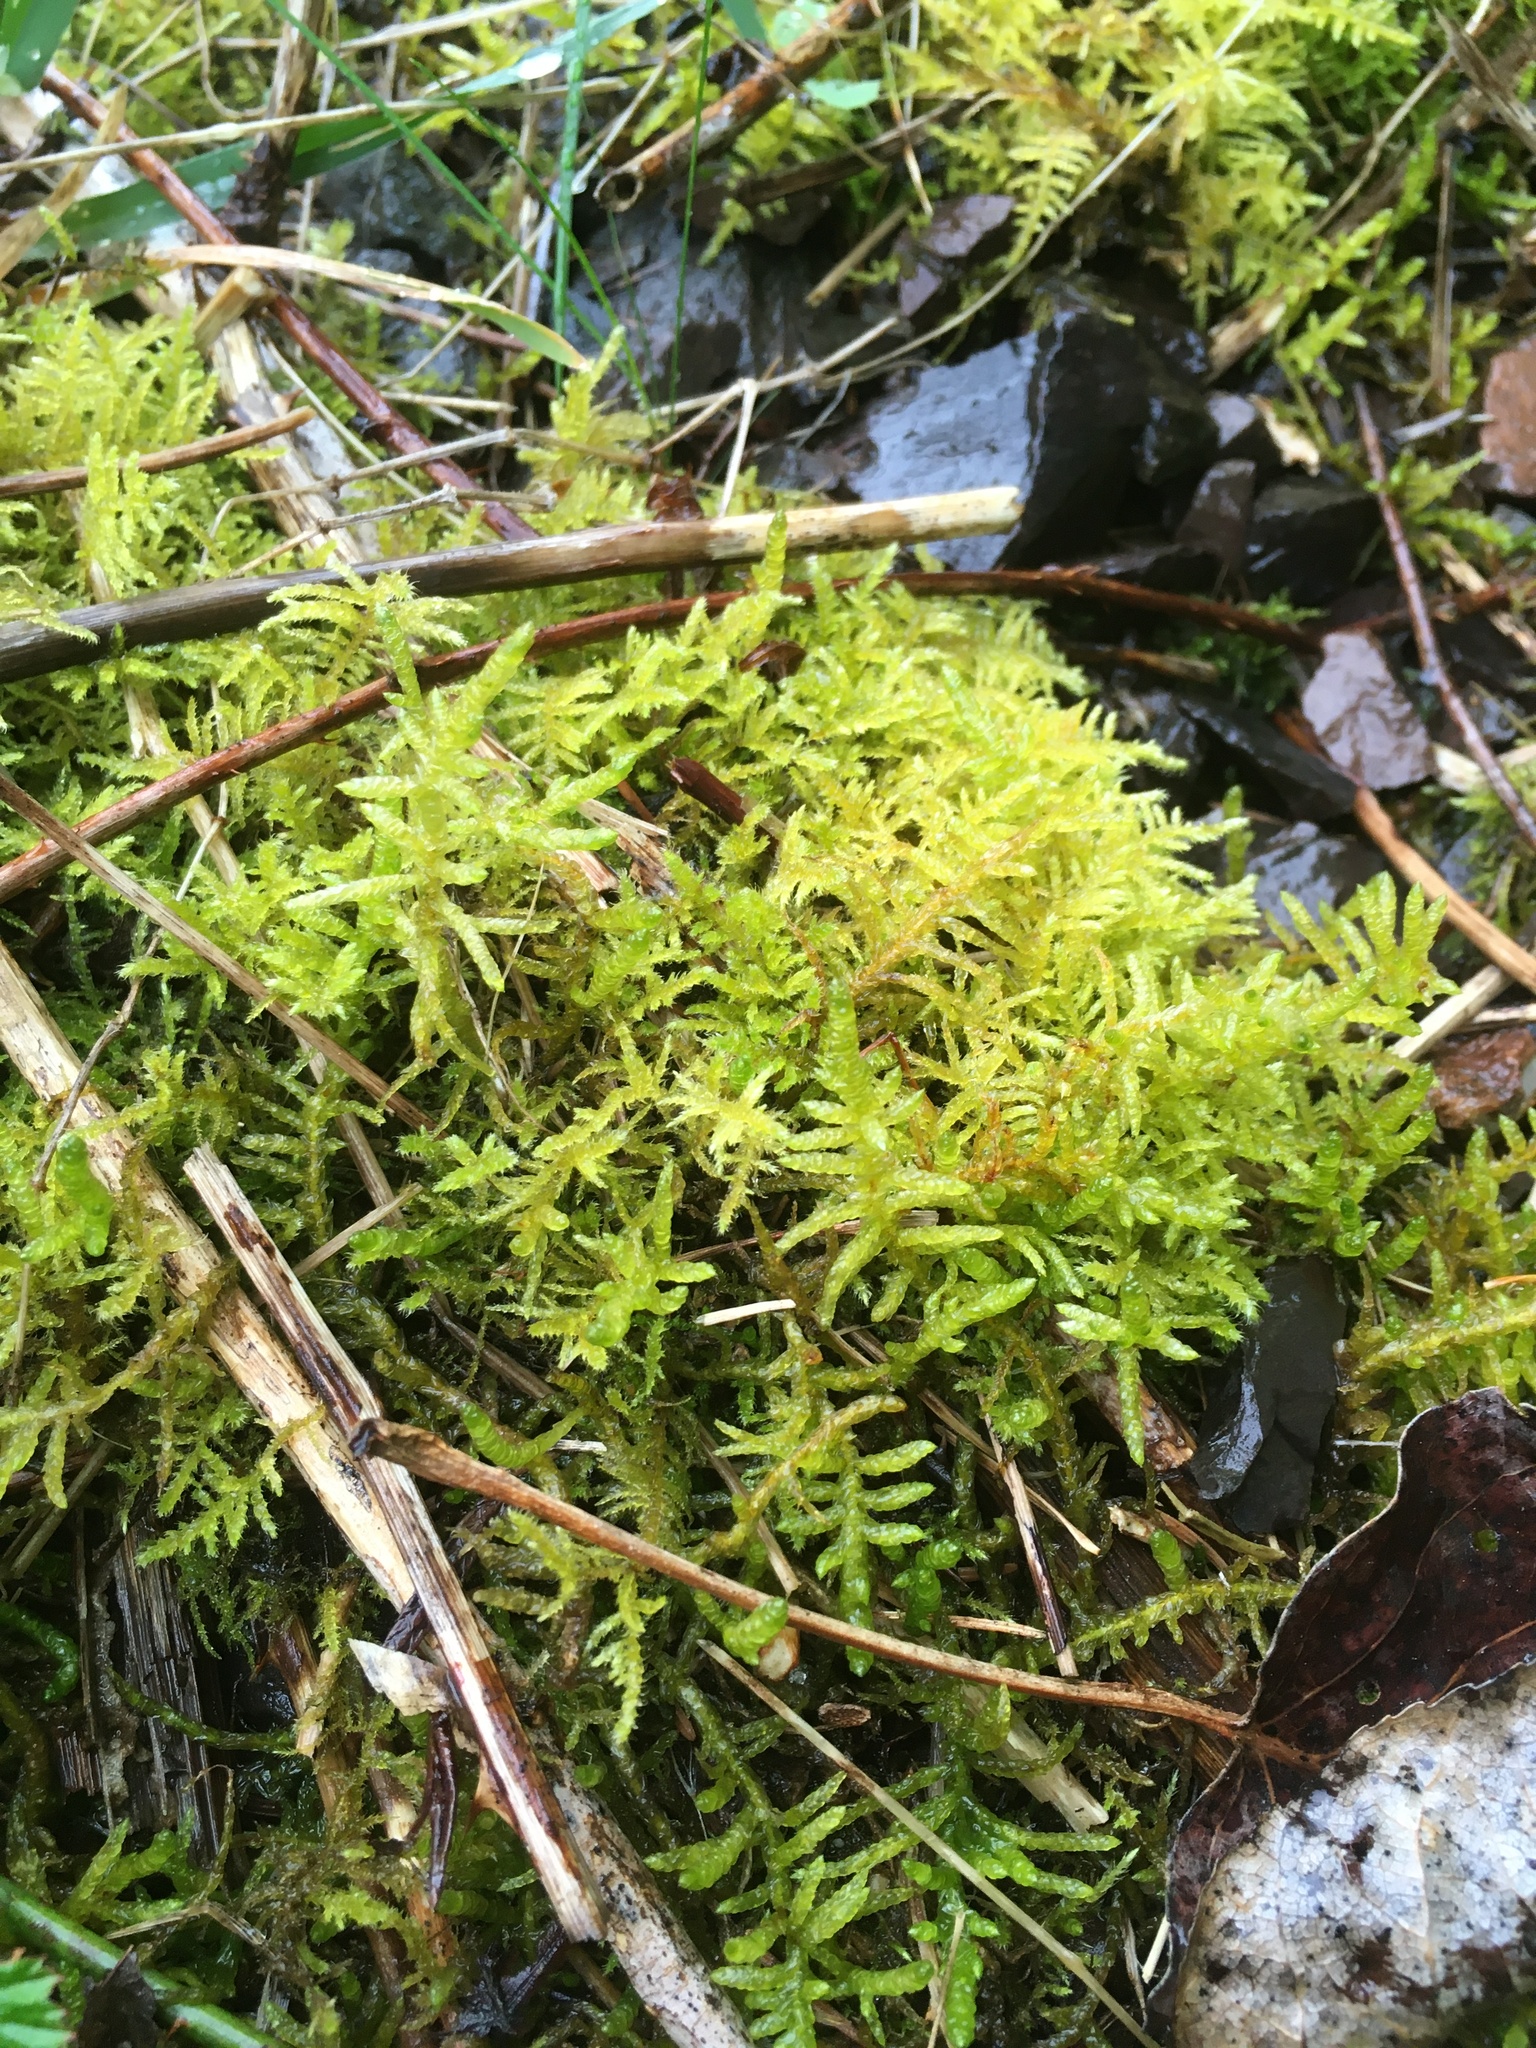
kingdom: Plantae
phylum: Bryophyta
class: Bryopsida
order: Hypnales
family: Brachytheciaceae
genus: Pseudoscleropodium
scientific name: Pseudoscleropodium purum
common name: Neat feather-moss
